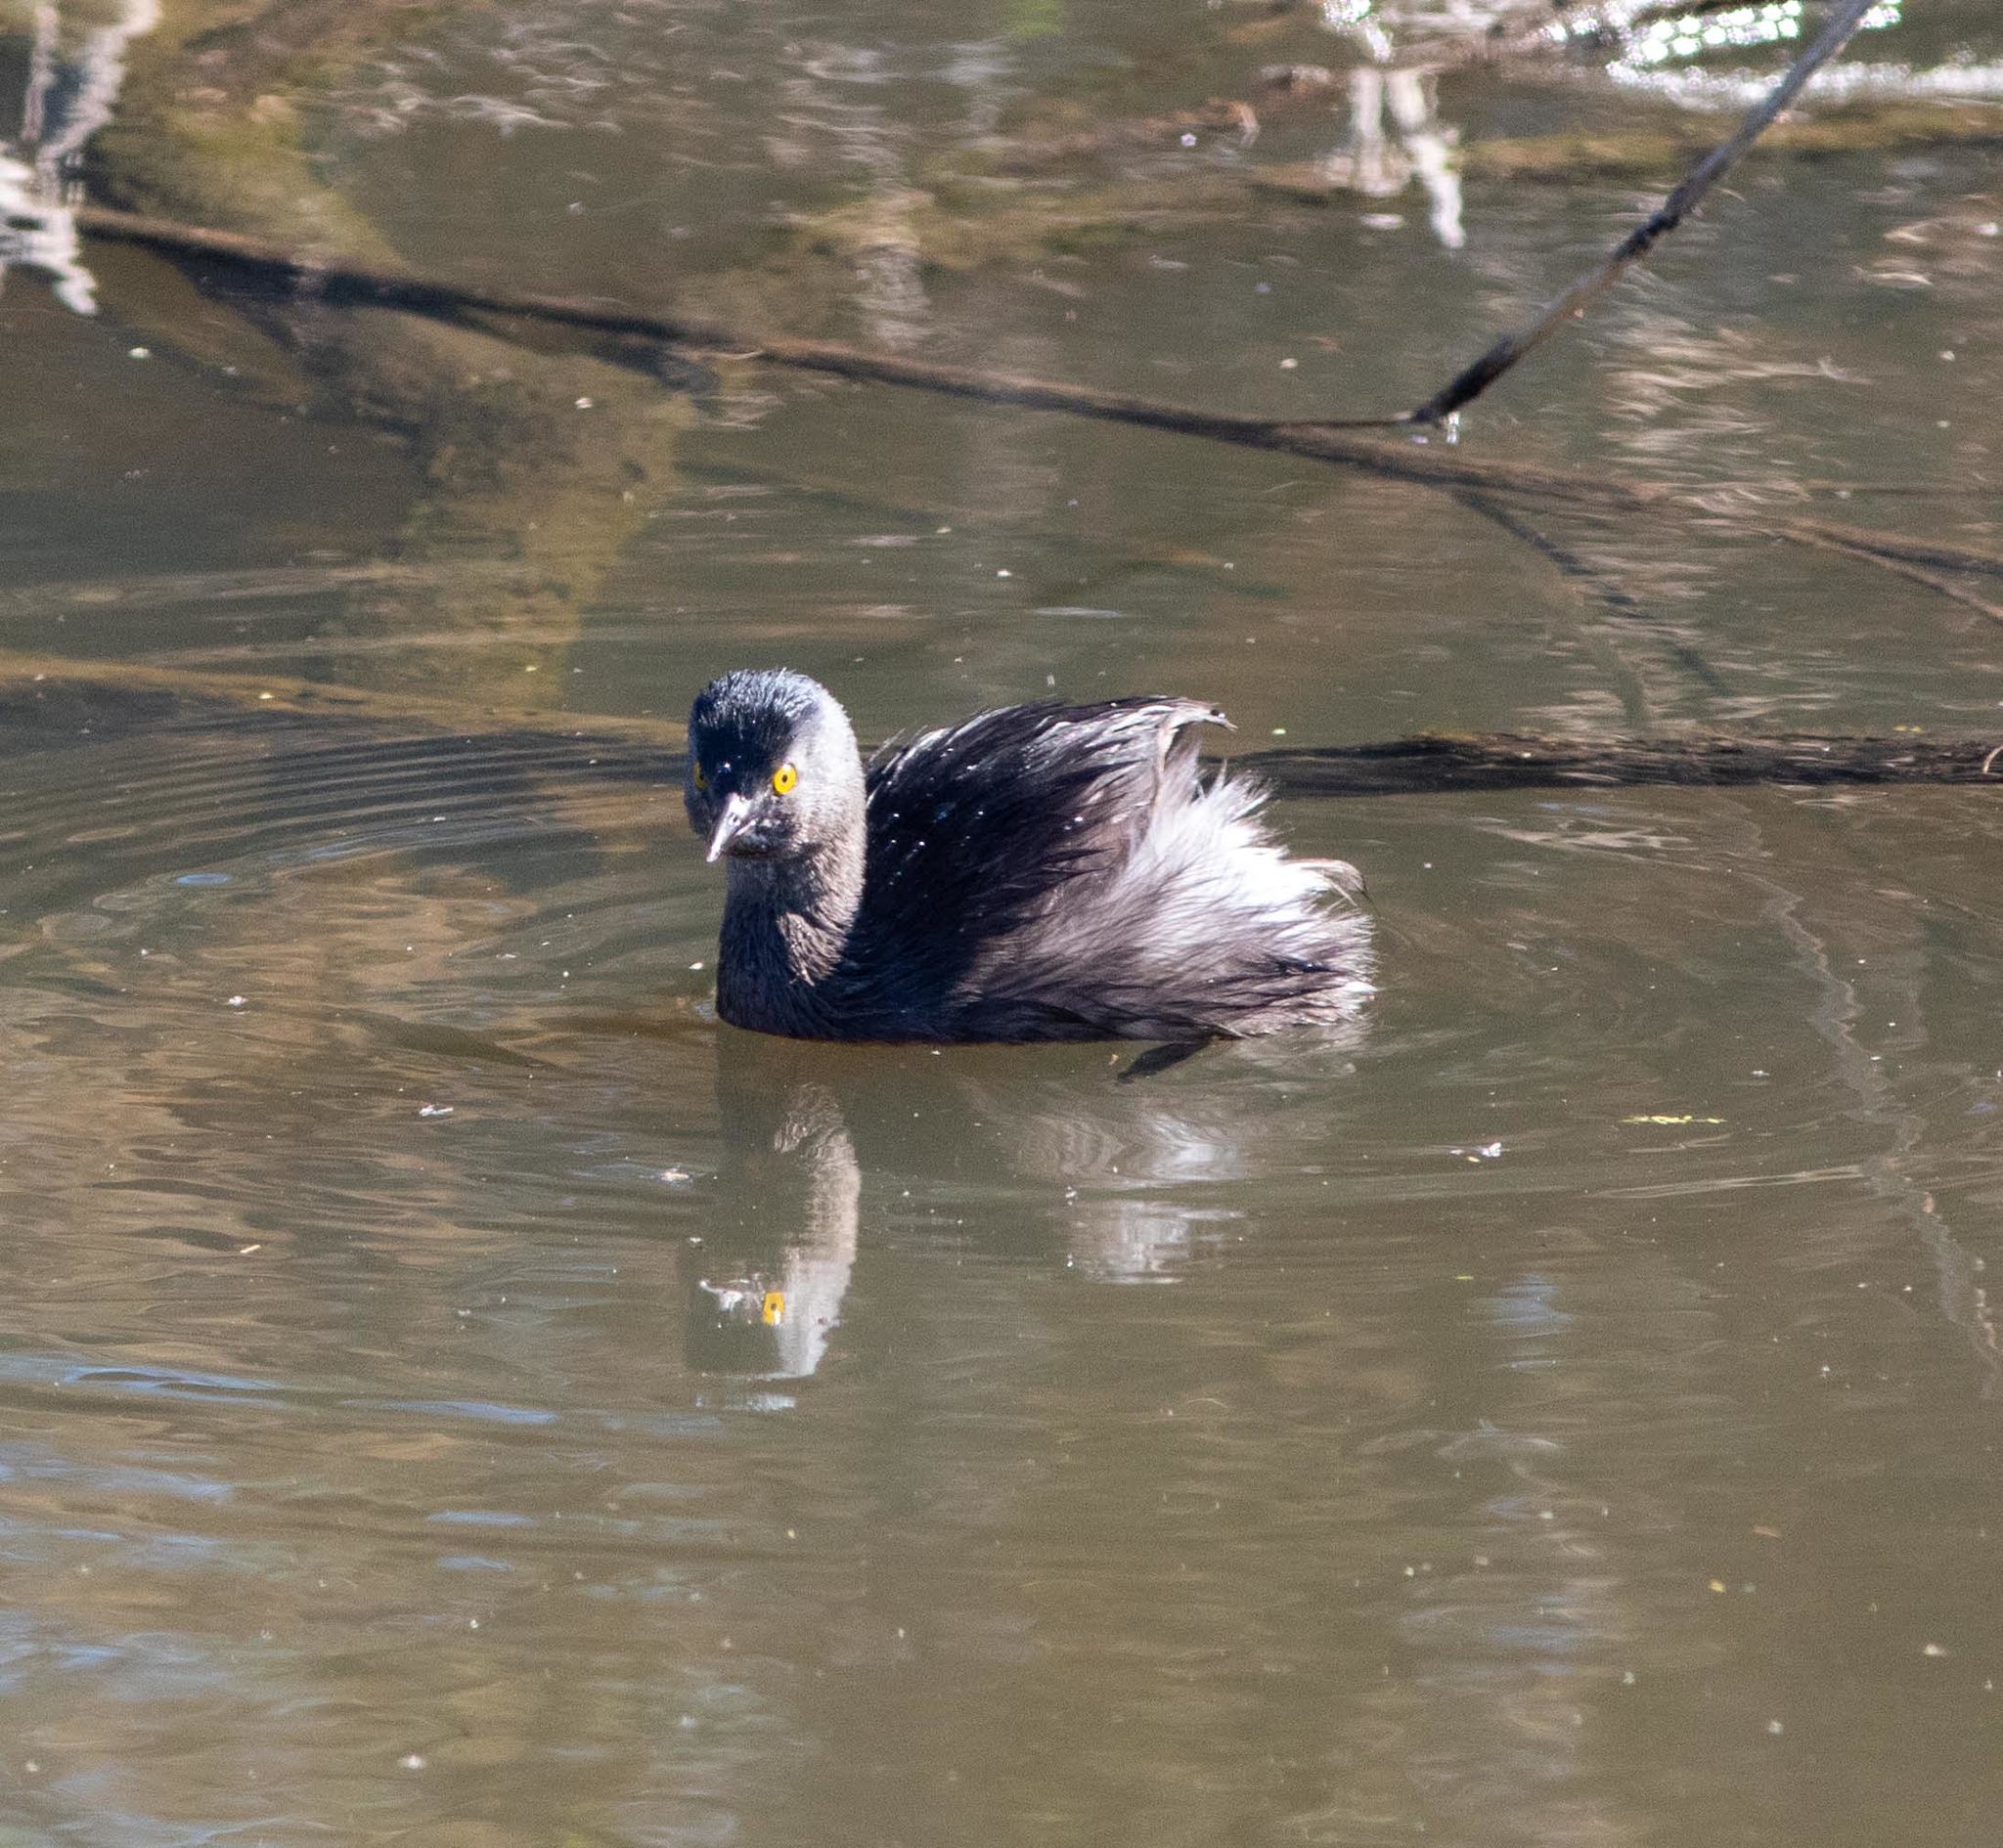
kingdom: Animalia
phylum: Chordata
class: Aves
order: Podicipediformes
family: Podicipedidae
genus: Tachybaptus
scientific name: Tachybaptus dominicus
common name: Least grebe
